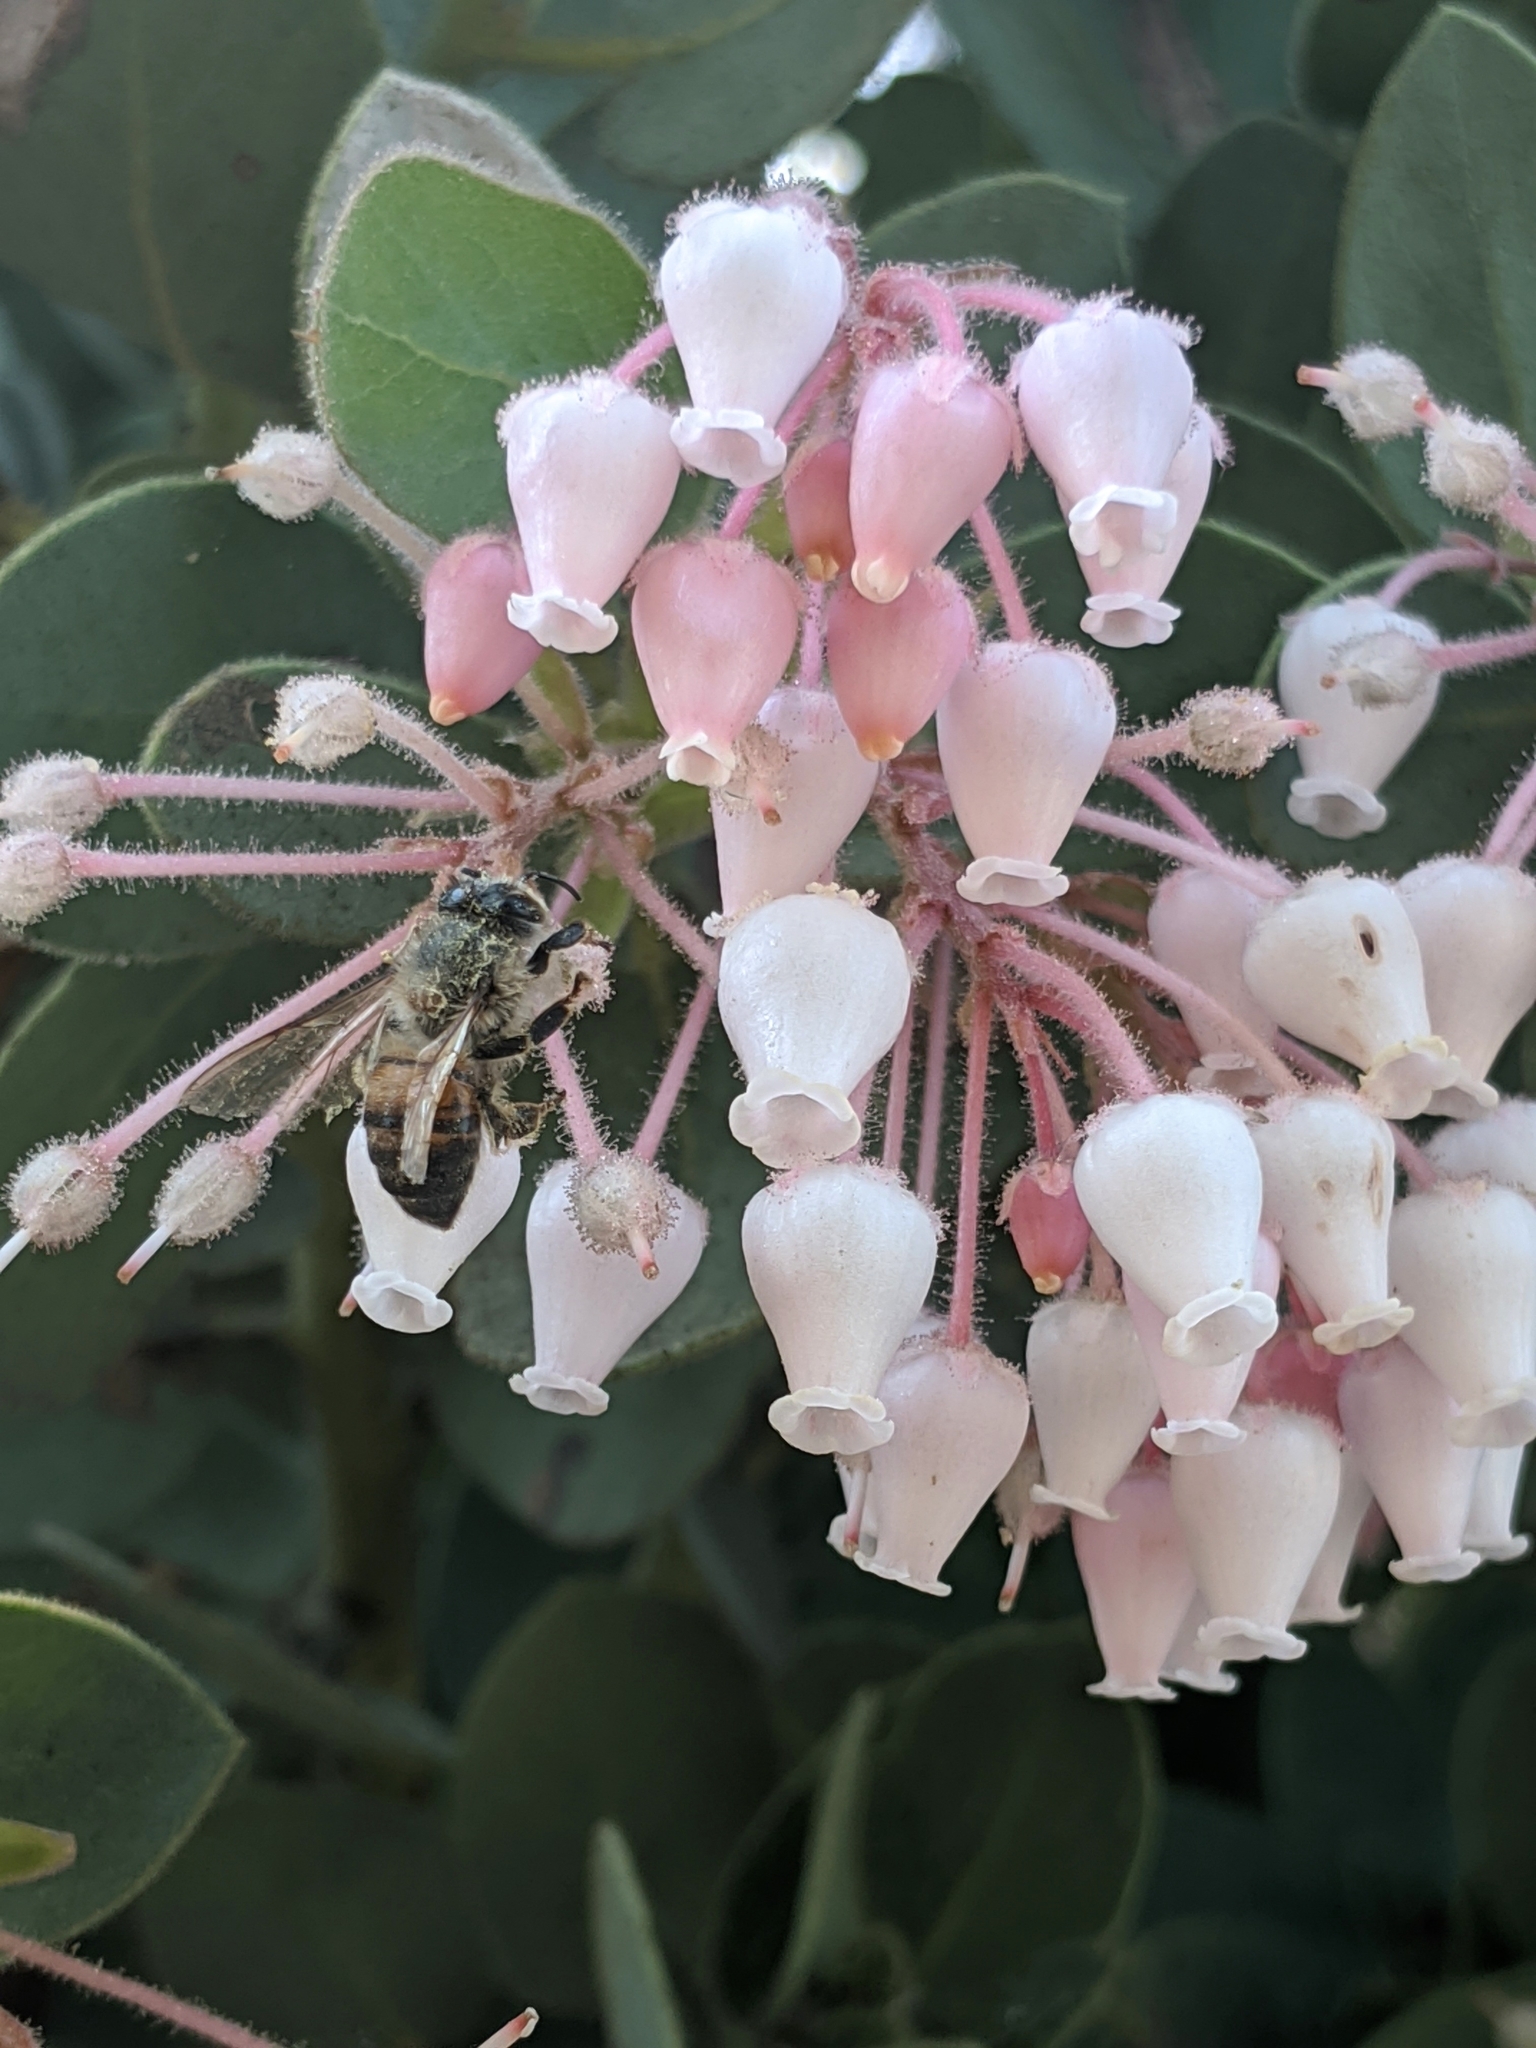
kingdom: Plantae
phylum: Tracheophyta
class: Magnoliopsida
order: Ericales
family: Ericaceae
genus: Arctostaphylos
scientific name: Arctostaphylos pringlei
